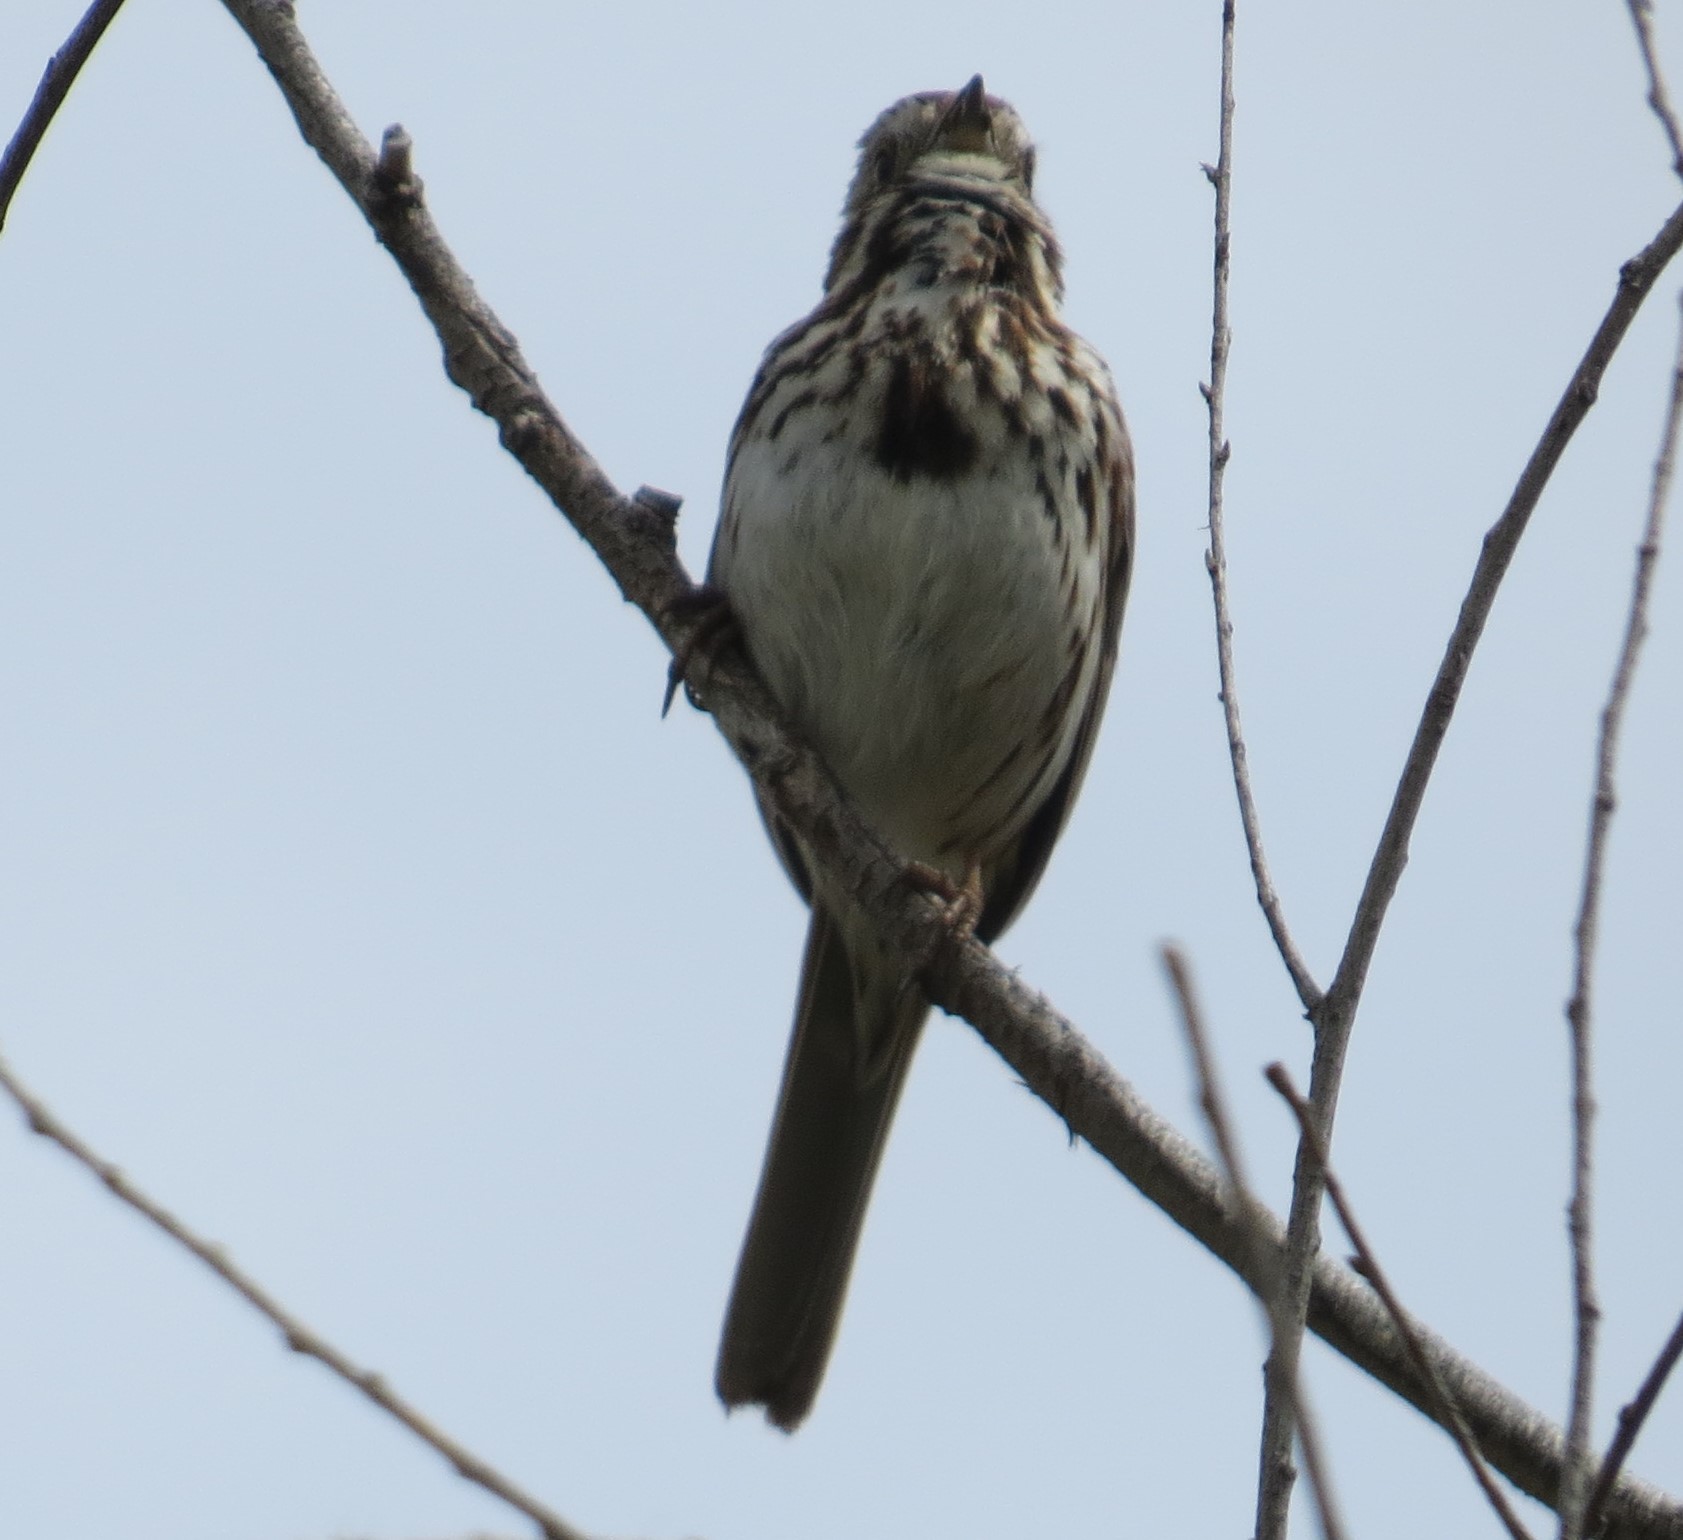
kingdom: Animalia
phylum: Chordata
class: Aves
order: Passeriformes
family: Passerellidae
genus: Melospiza
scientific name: Melospiza melodia
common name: Song sparrow
